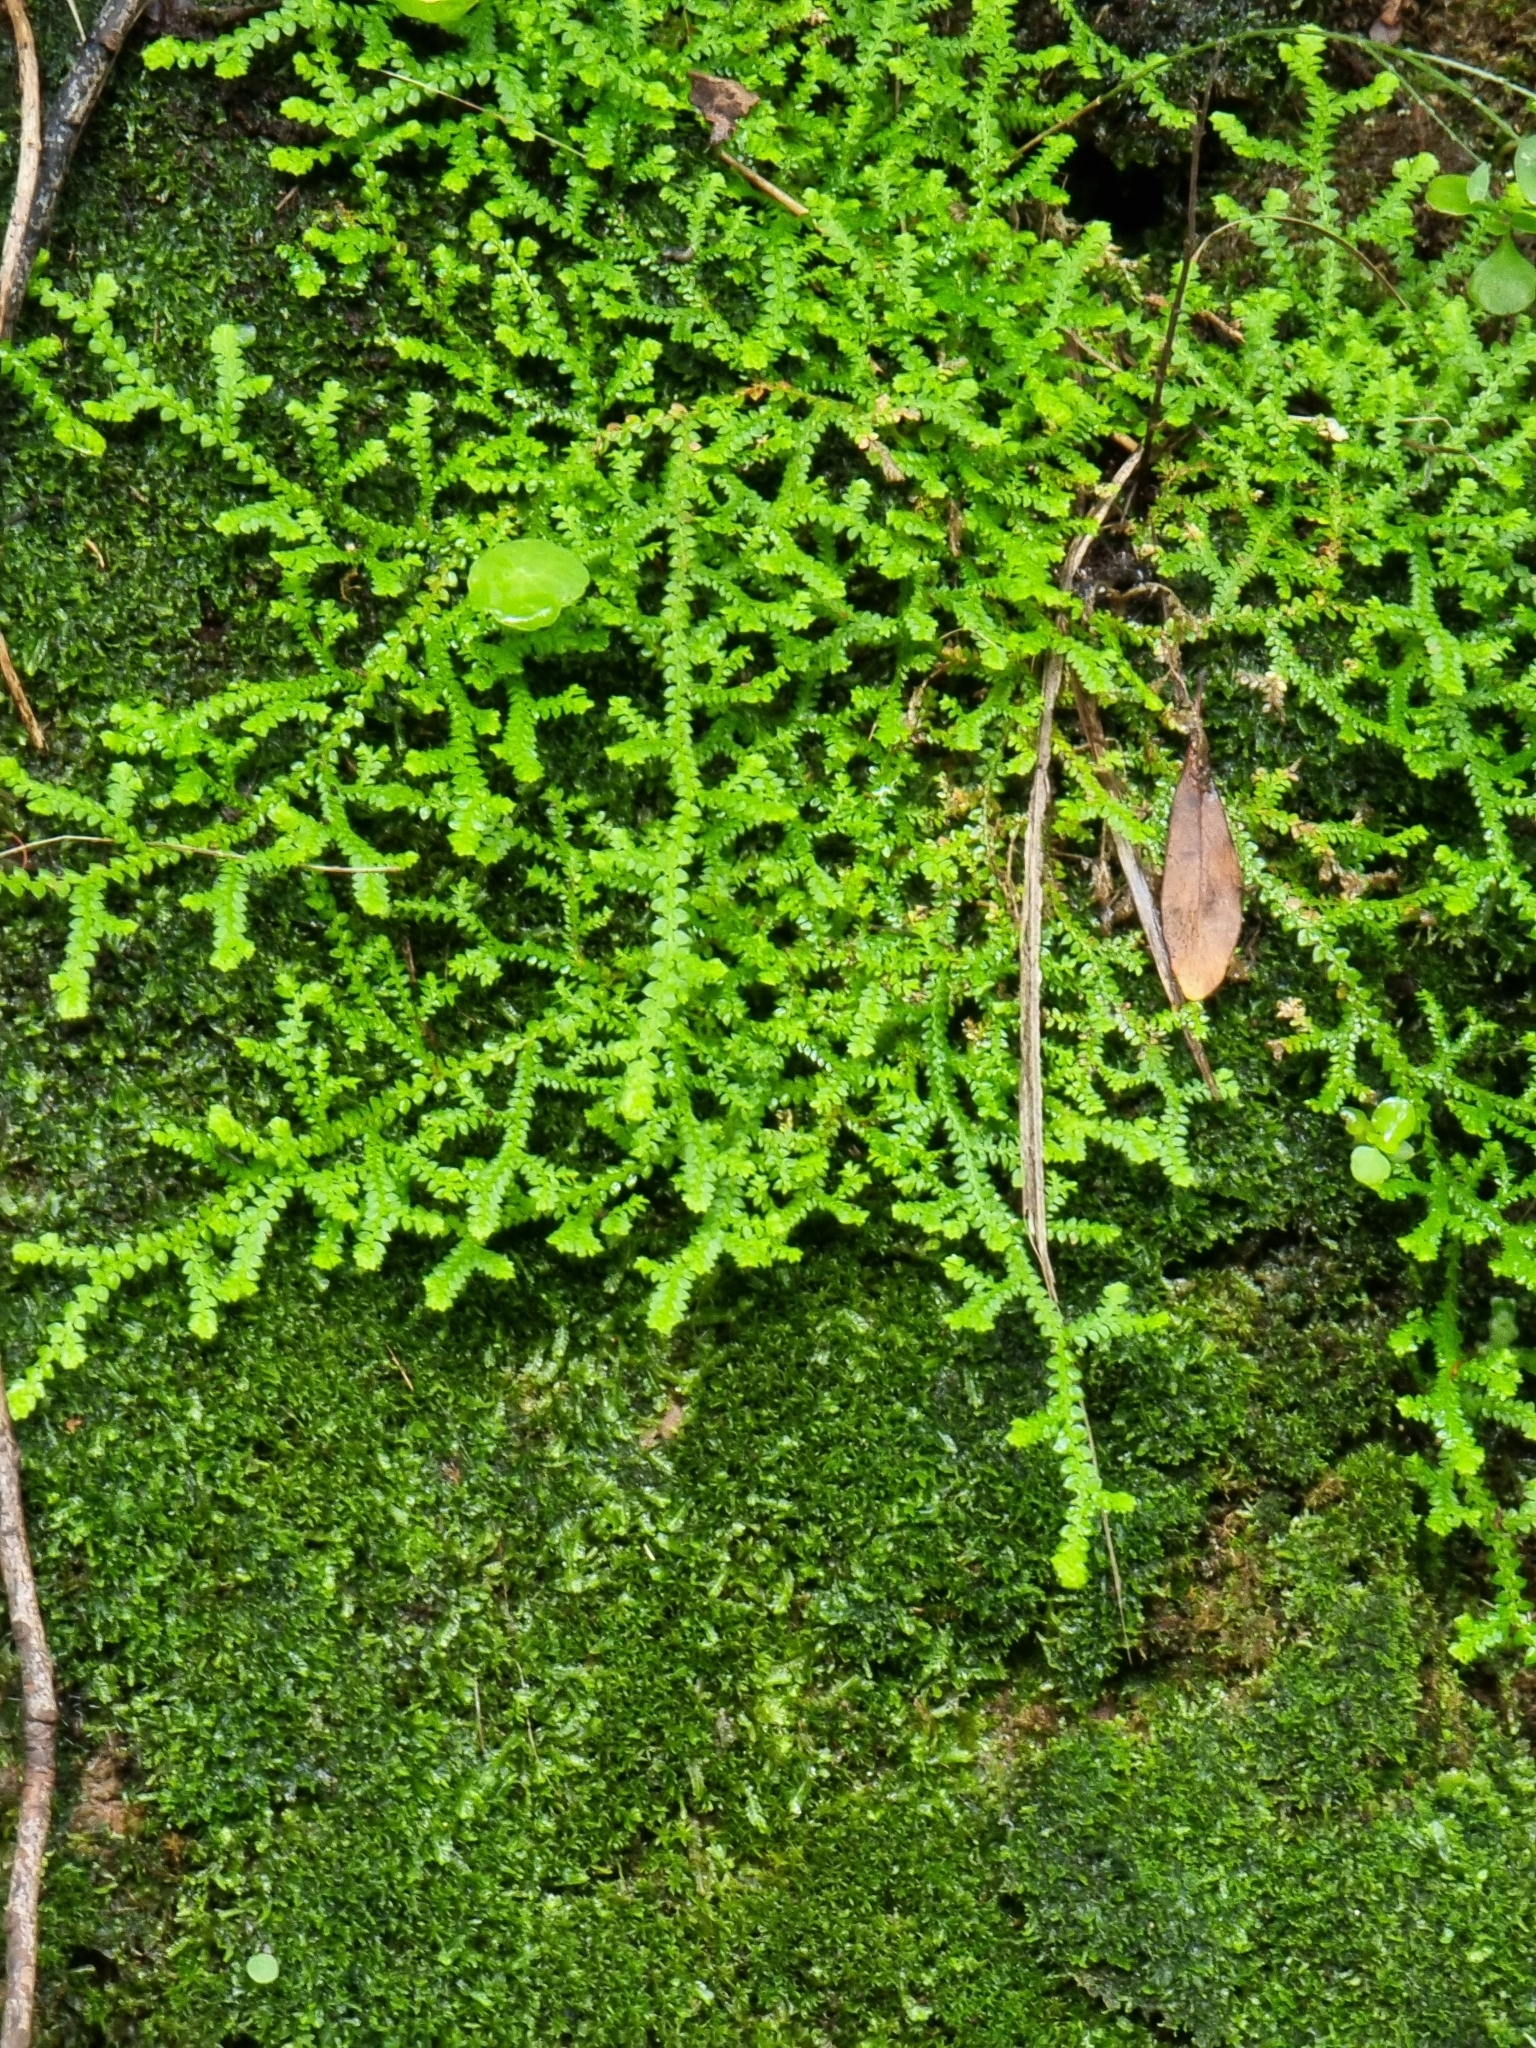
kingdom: Plantae
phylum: Tracheophyta
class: Lycopodiopsida
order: Selaginellales
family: Selaginellaceae
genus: Selaginella
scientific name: Selaginella denticulata
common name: Toothed-leaved clubmoss
